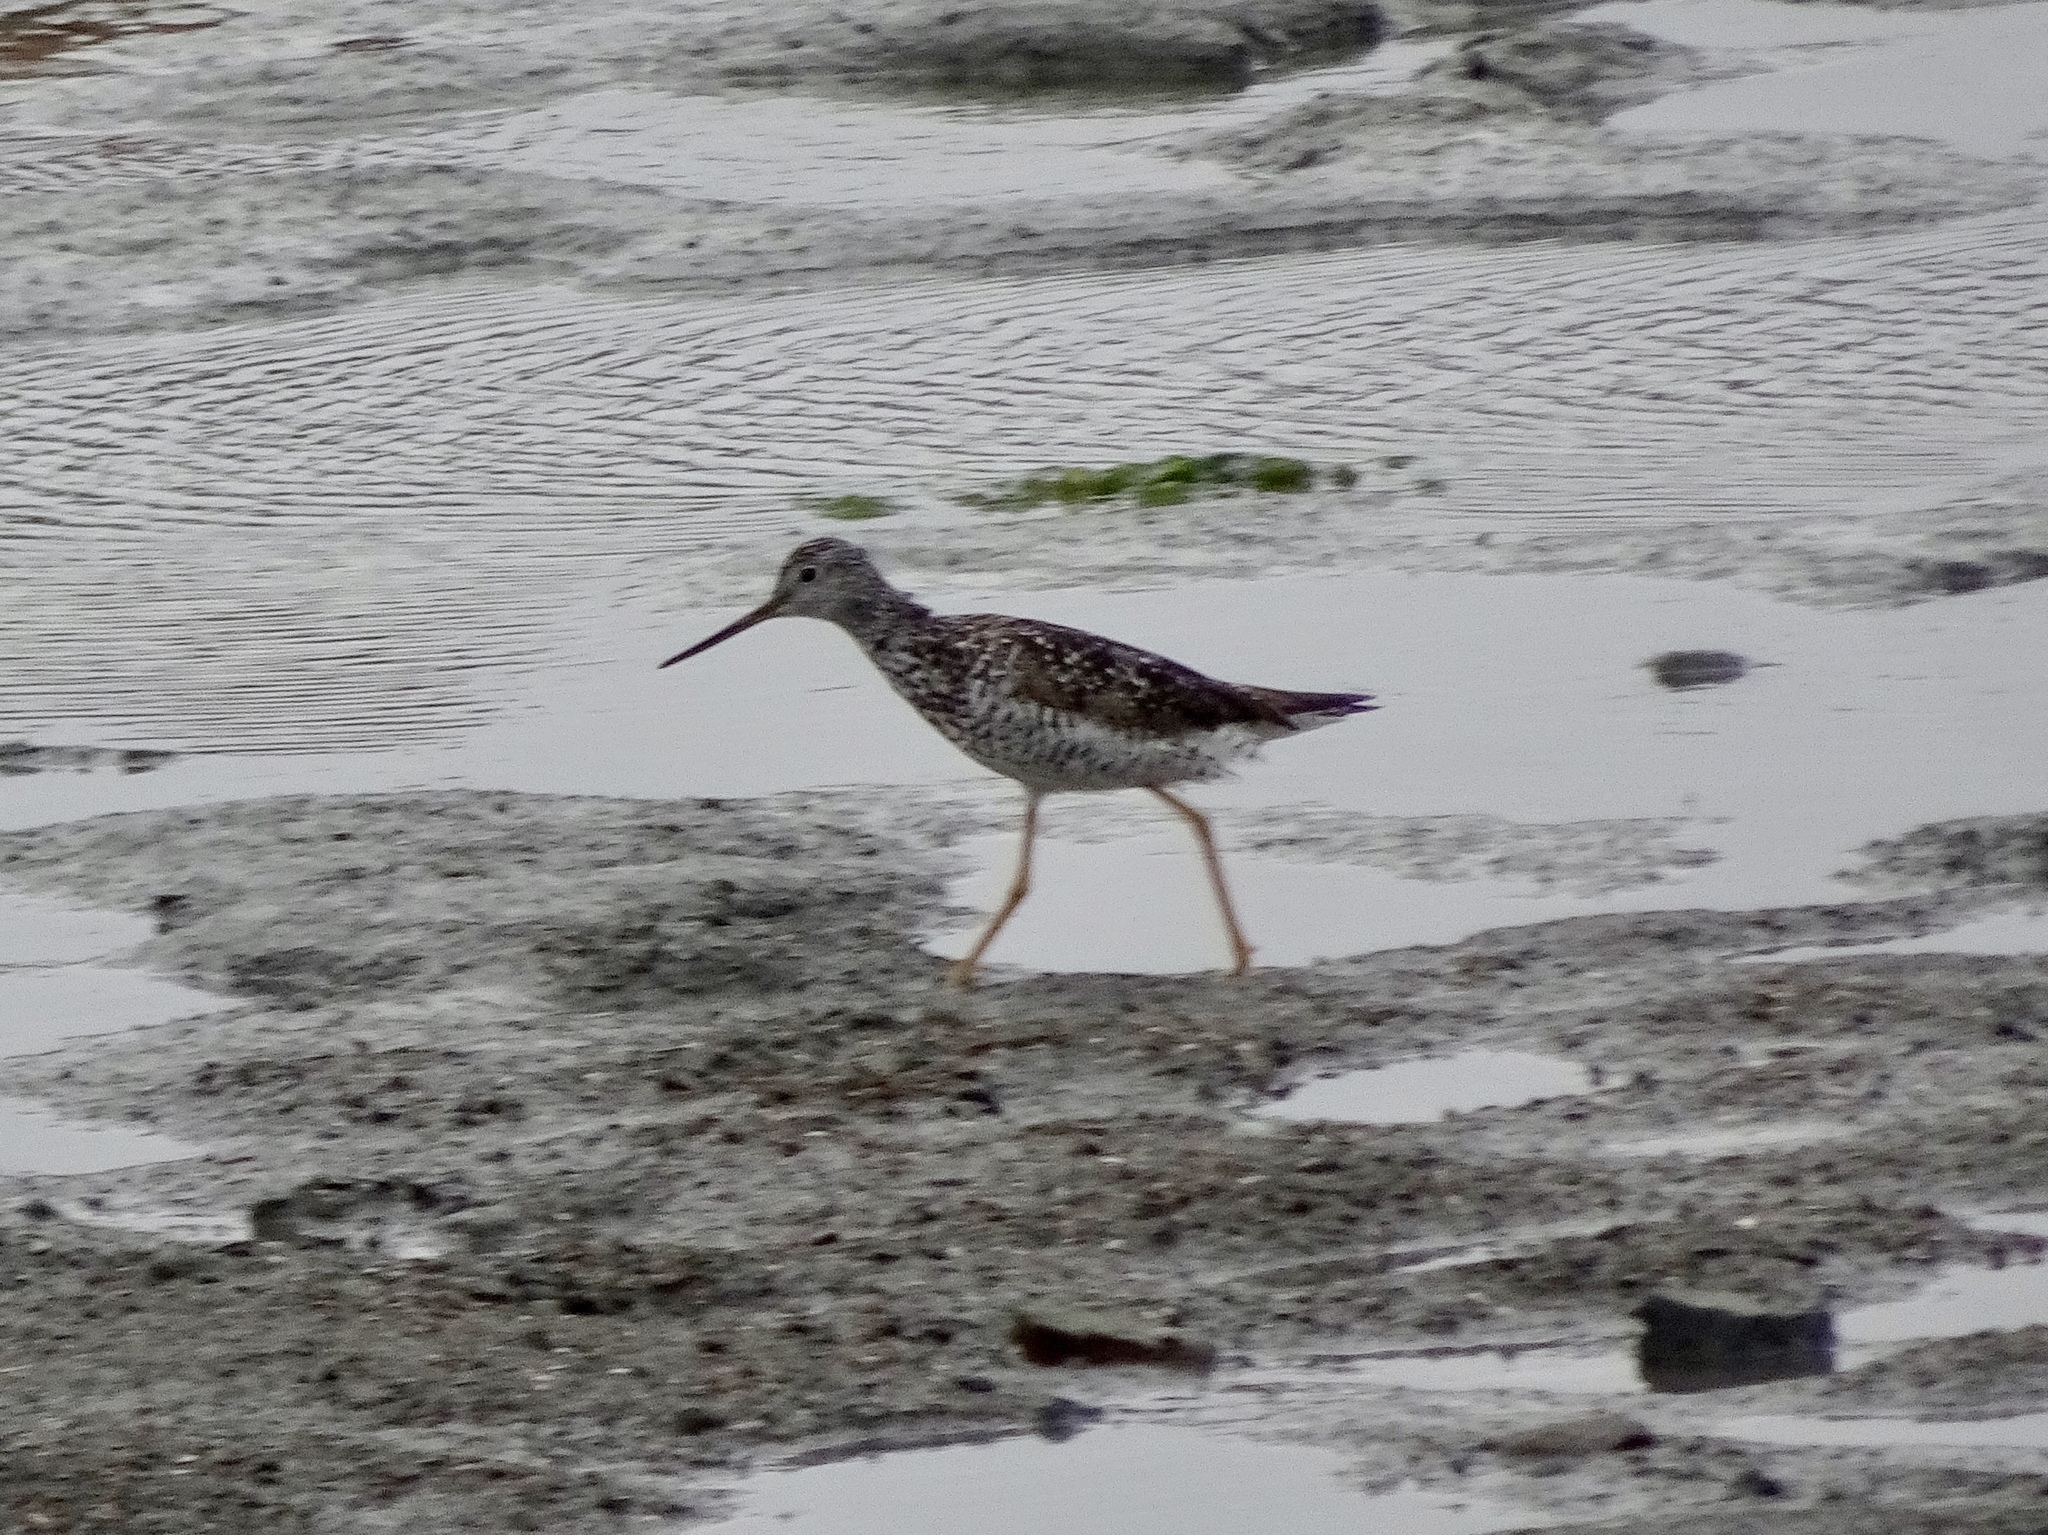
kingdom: Animalia
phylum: Chordata
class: Aves
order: Charadriiformes
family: Scolopacidae
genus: Tringa
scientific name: Tringa melanoleuca
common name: Greater yellowlegs
